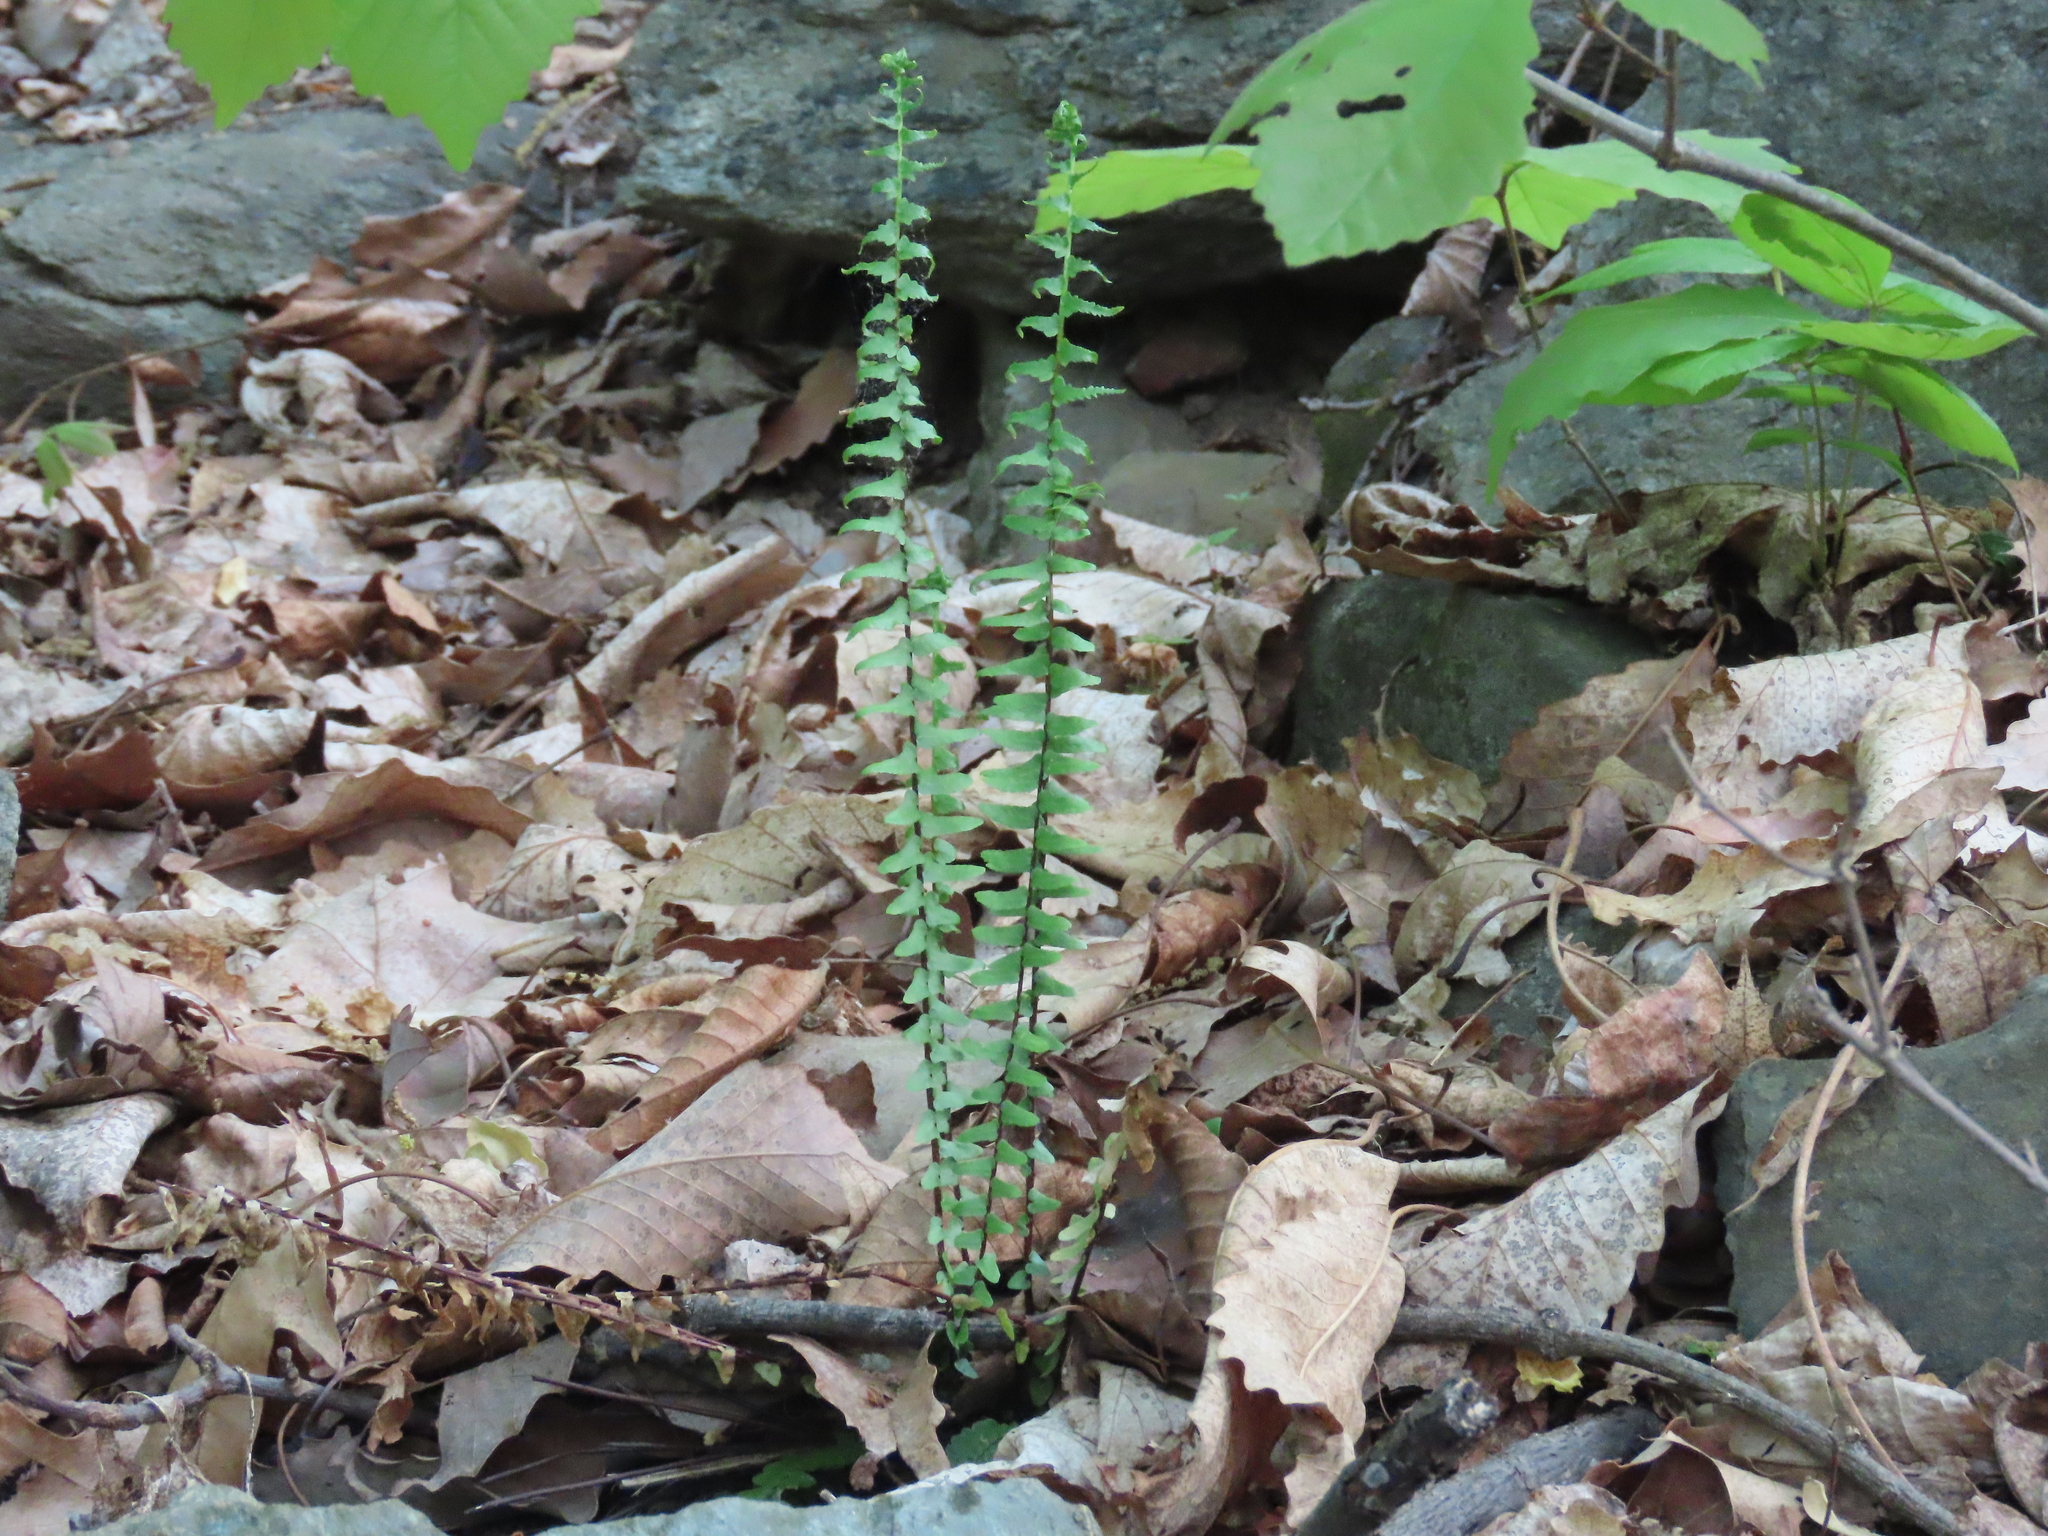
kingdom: Plantae
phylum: Tracheophyta
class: Polypodiopsida
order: Polypodiales
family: Aspleniaceae
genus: Asplenium
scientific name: Asplenium platyneuron
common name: Ebony spleenwort
